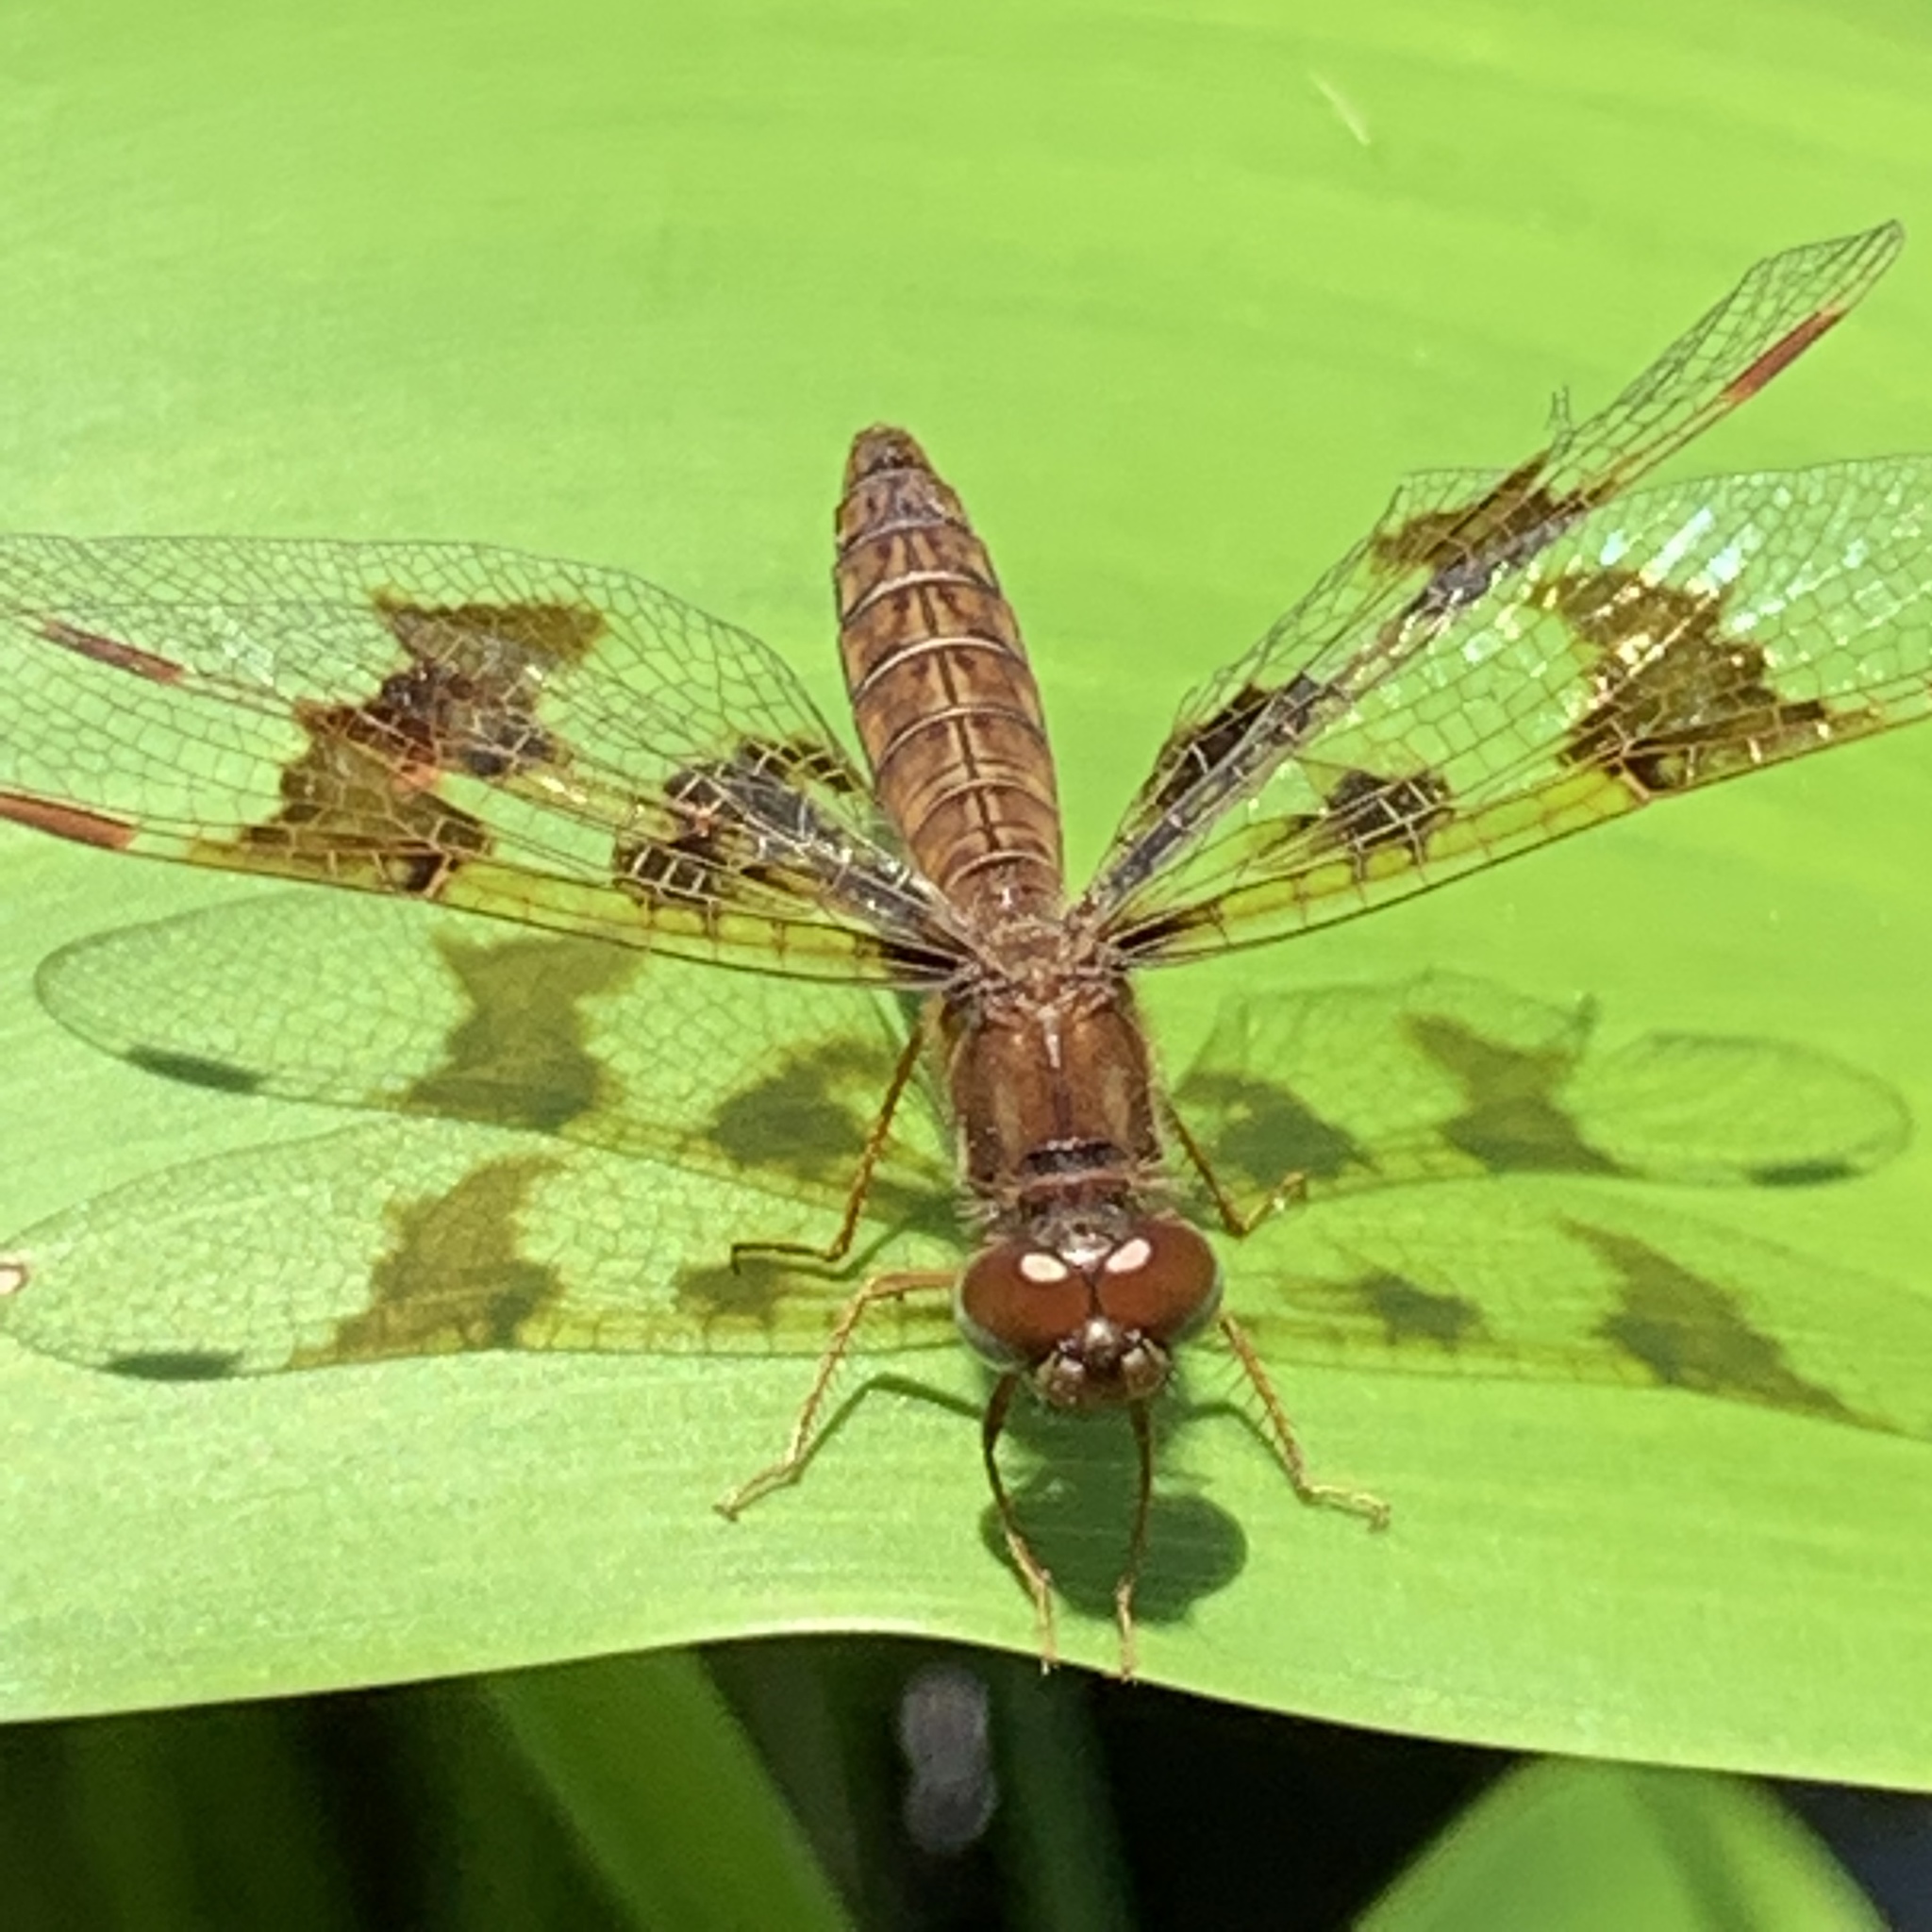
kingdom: Animalia
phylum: Arthropoda
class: Insecta
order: Odonata
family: Libellulidae
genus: Perithemis
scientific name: Perithemis tenera
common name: Eastern amberwing
